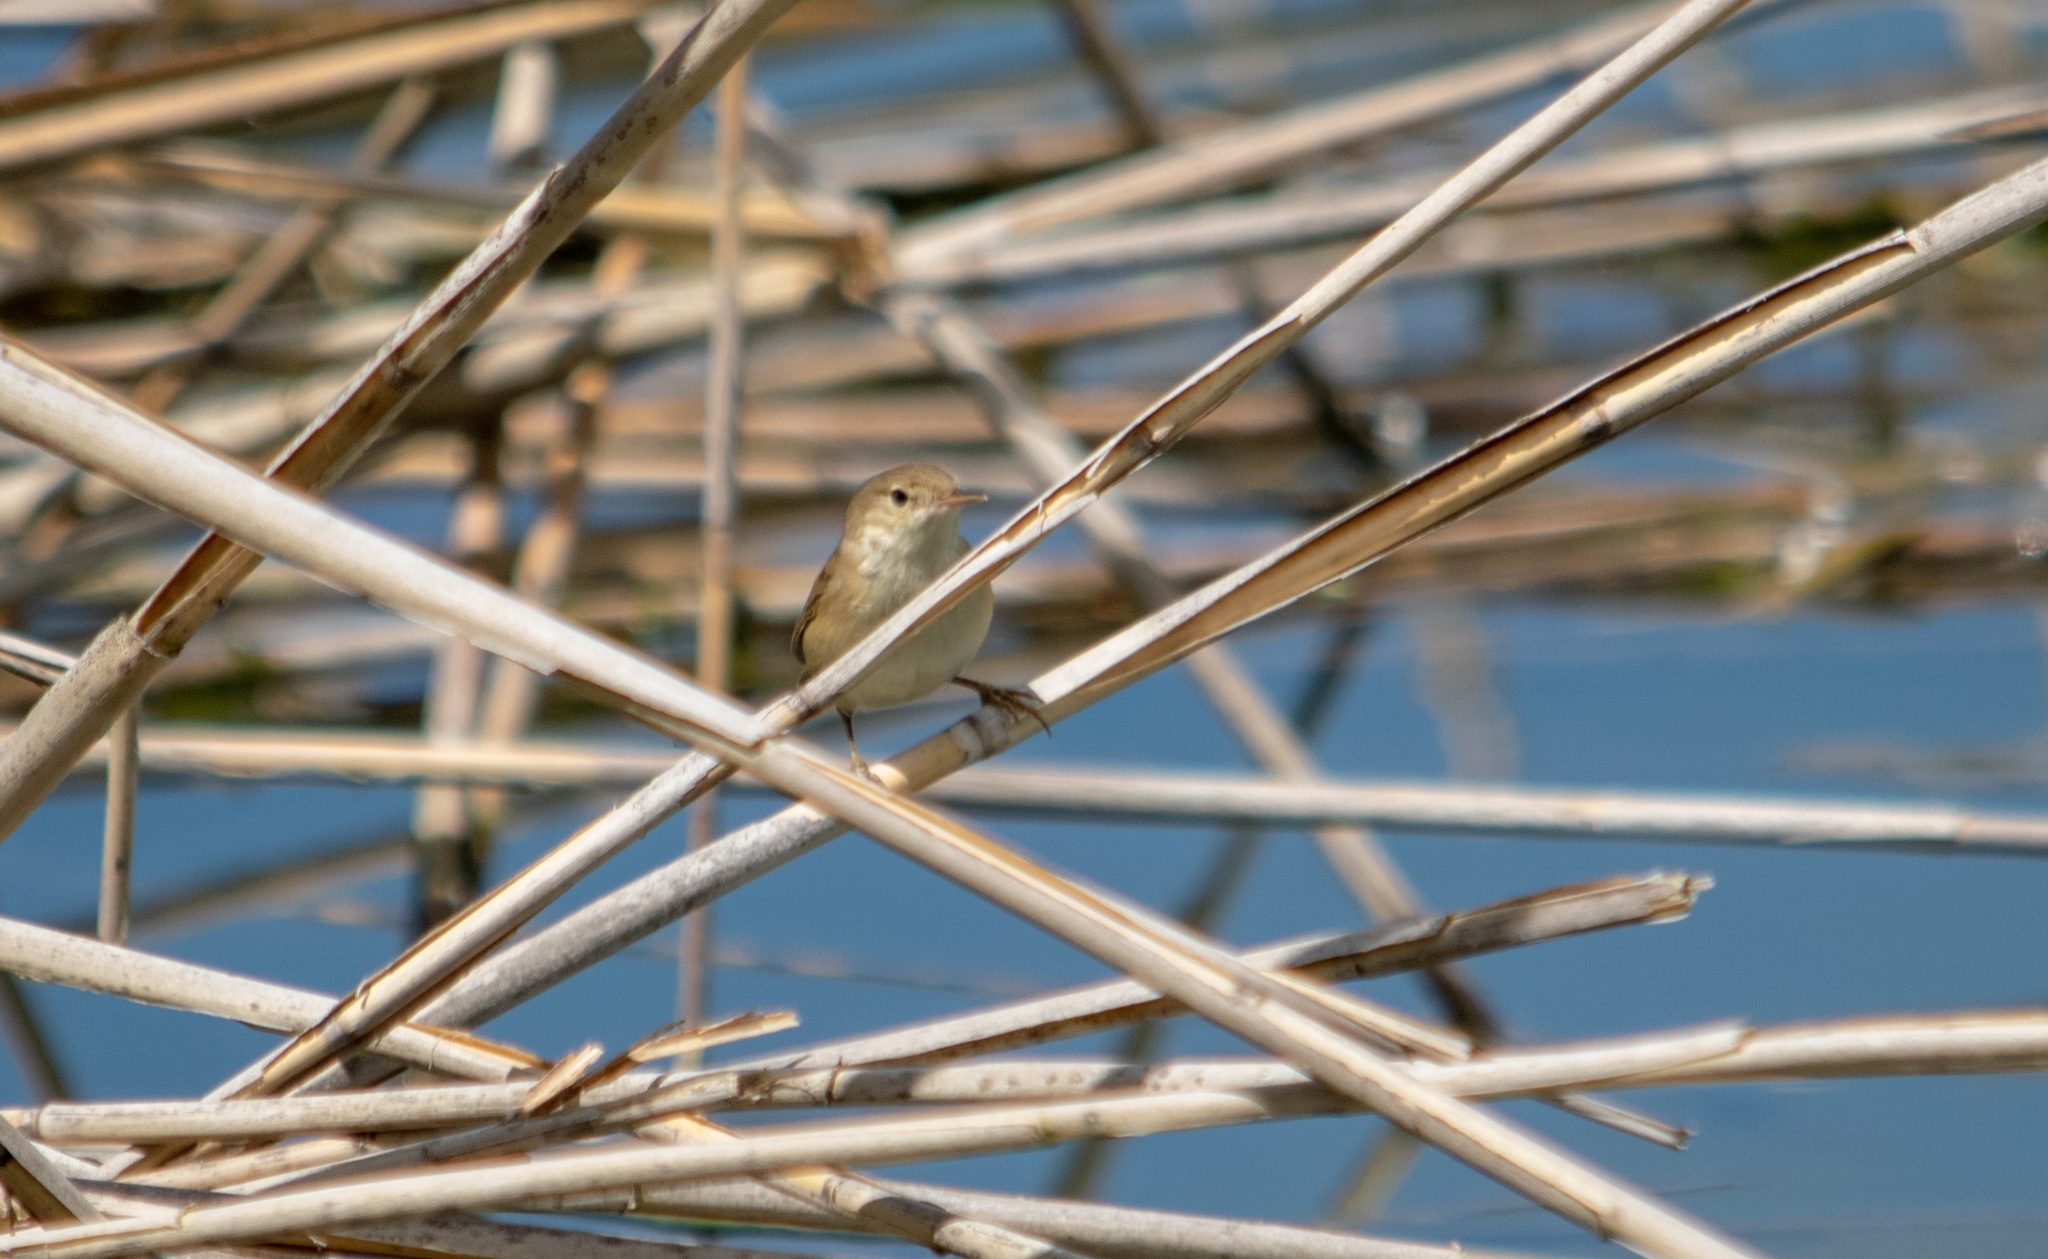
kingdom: Animalia
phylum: Chordata
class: Aves
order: Passeriformes
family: Acrocephalidae
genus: Acrocephalus
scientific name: Acrocephalus scirpaceus
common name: Eurasian reed warbler
